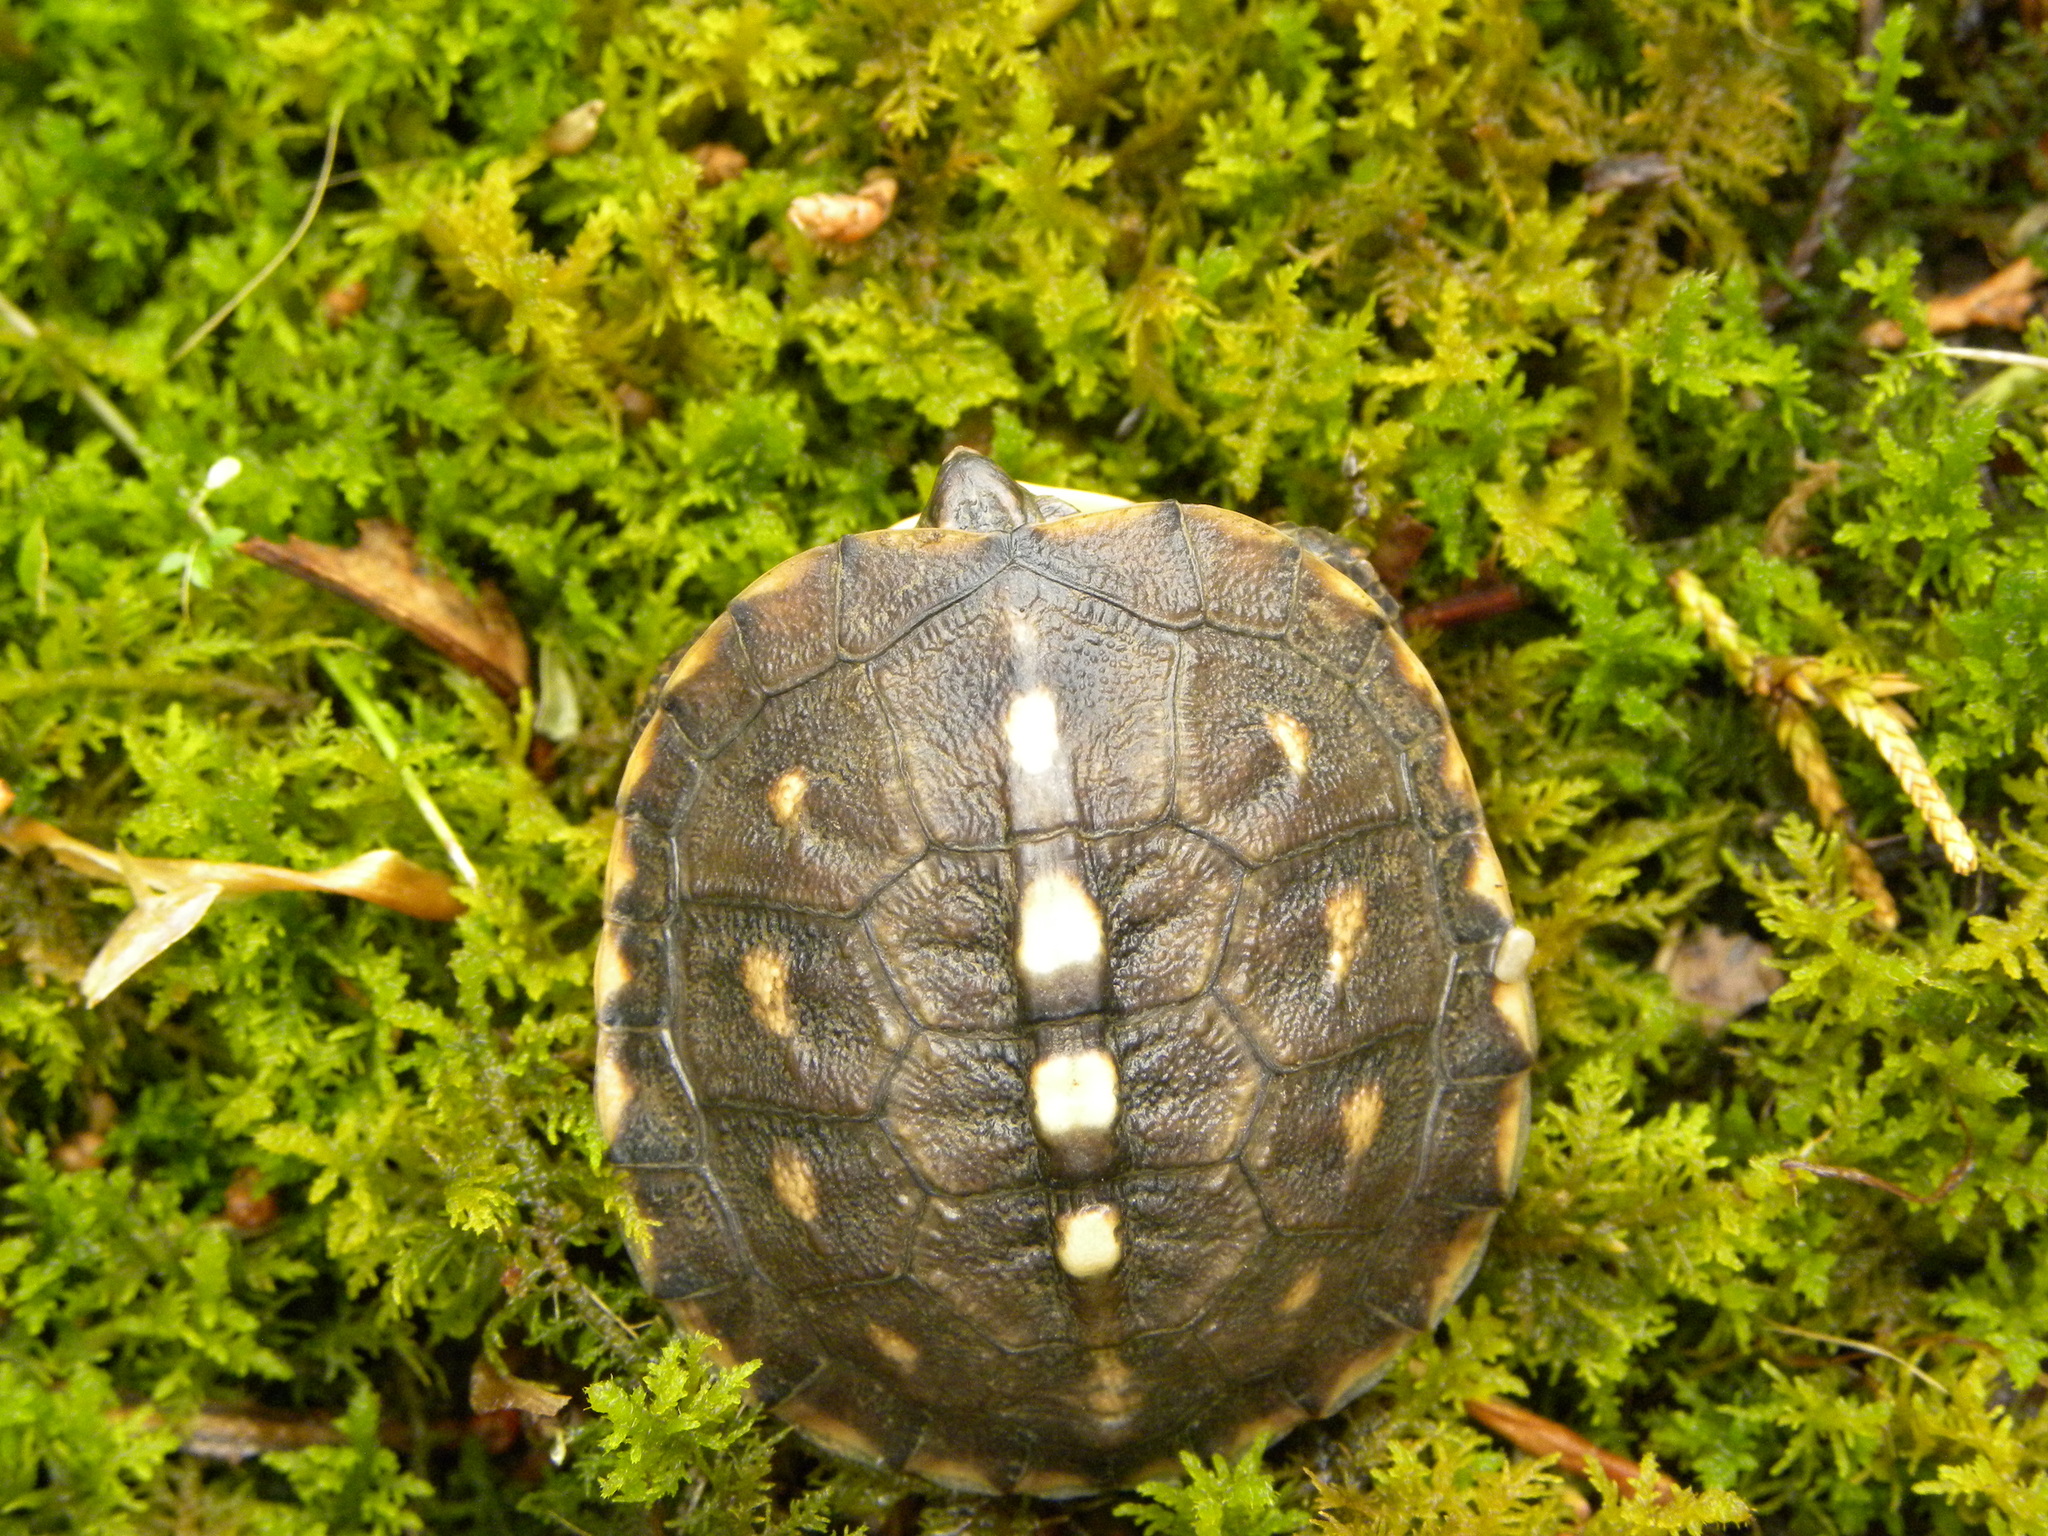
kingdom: Animalia
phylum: Chordata
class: Testudines
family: Emydidae
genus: Terrapene
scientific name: Terrapene carolina
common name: Common box turtle
